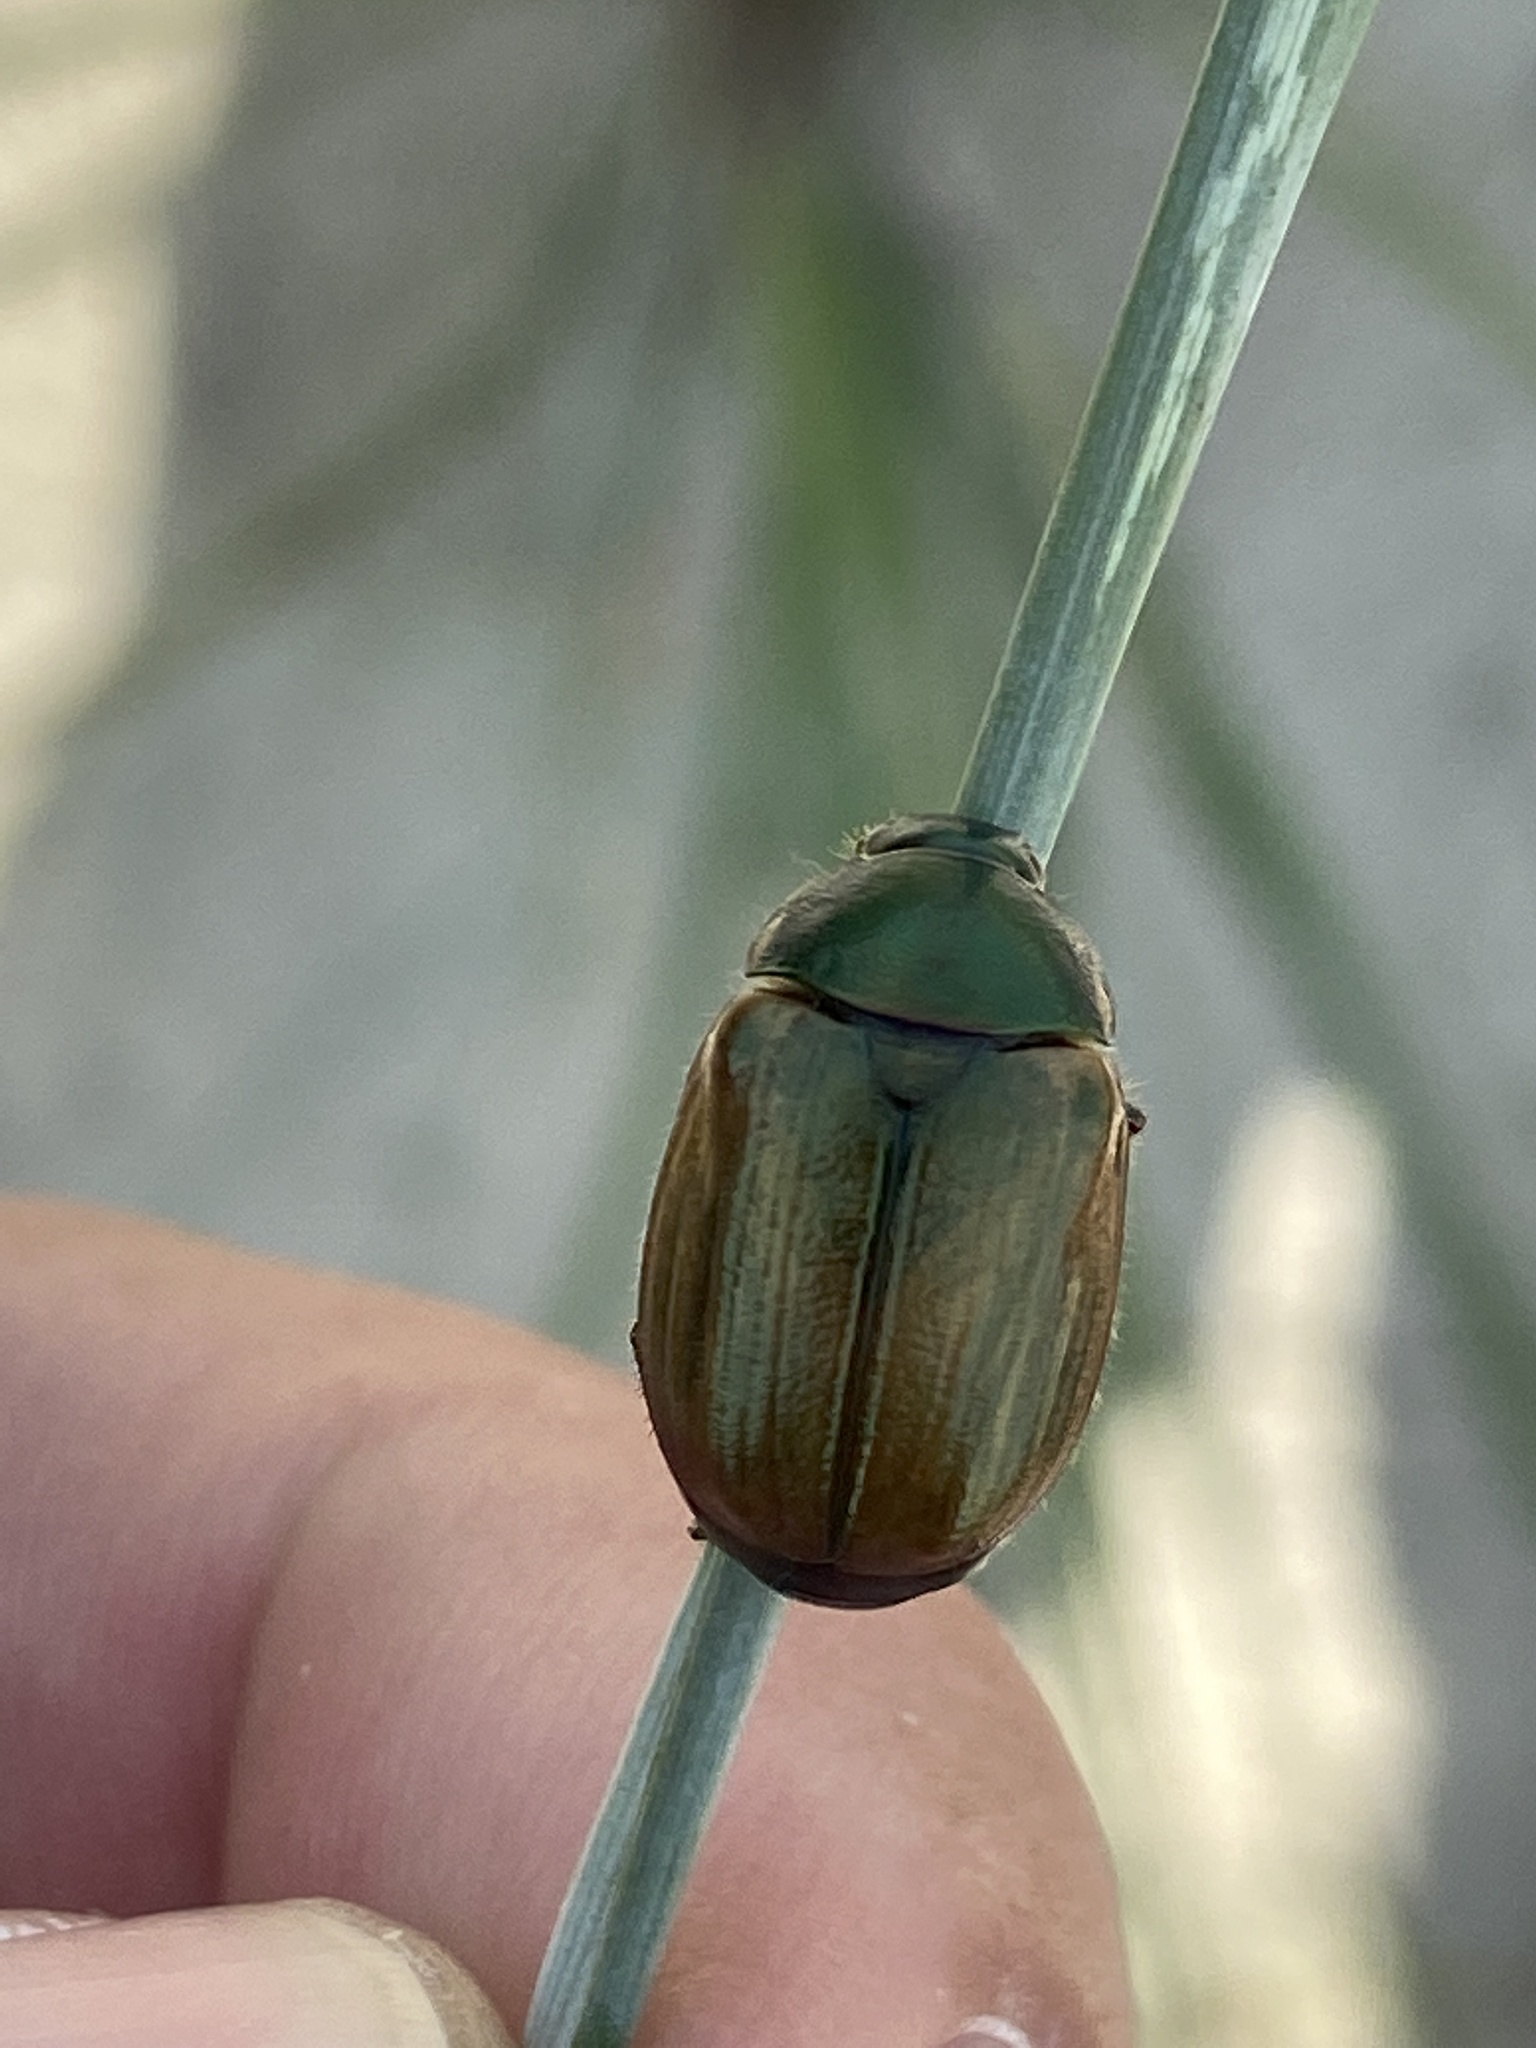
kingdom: Animalia
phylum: Arthropoda
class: Insecta
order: Coleoptera
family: Scarabaeidae
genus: Anomala
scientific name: Anomala dubia
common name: Dune chafer
